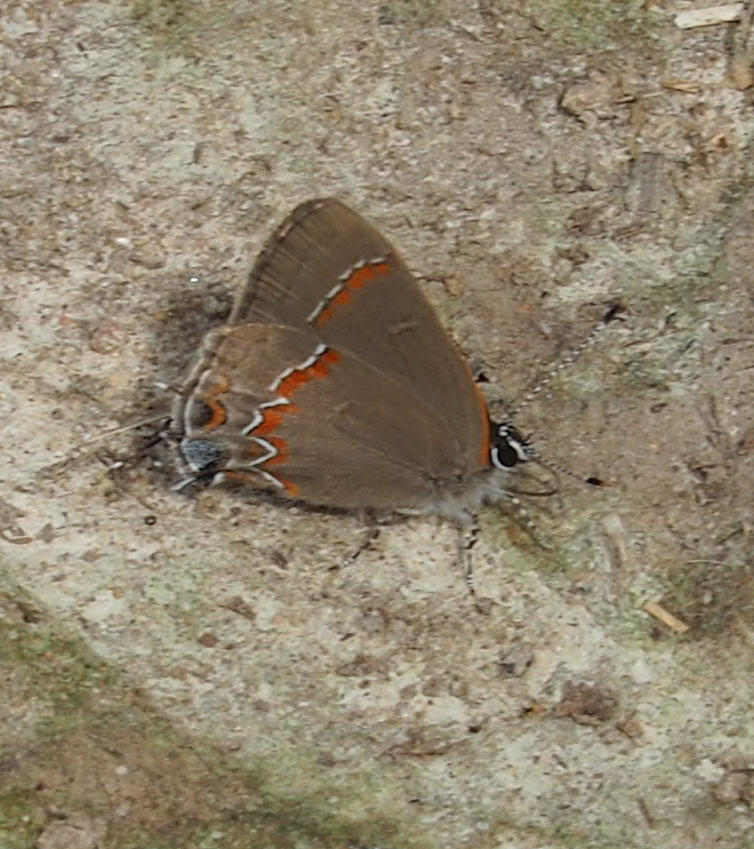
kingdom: Animalia
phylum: Arthropoda
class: Insecta
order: Lepidoptera
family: Lycaenidae
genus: Calycopis
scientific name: Calycopis cecrops
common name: Red-banded hairstreak
